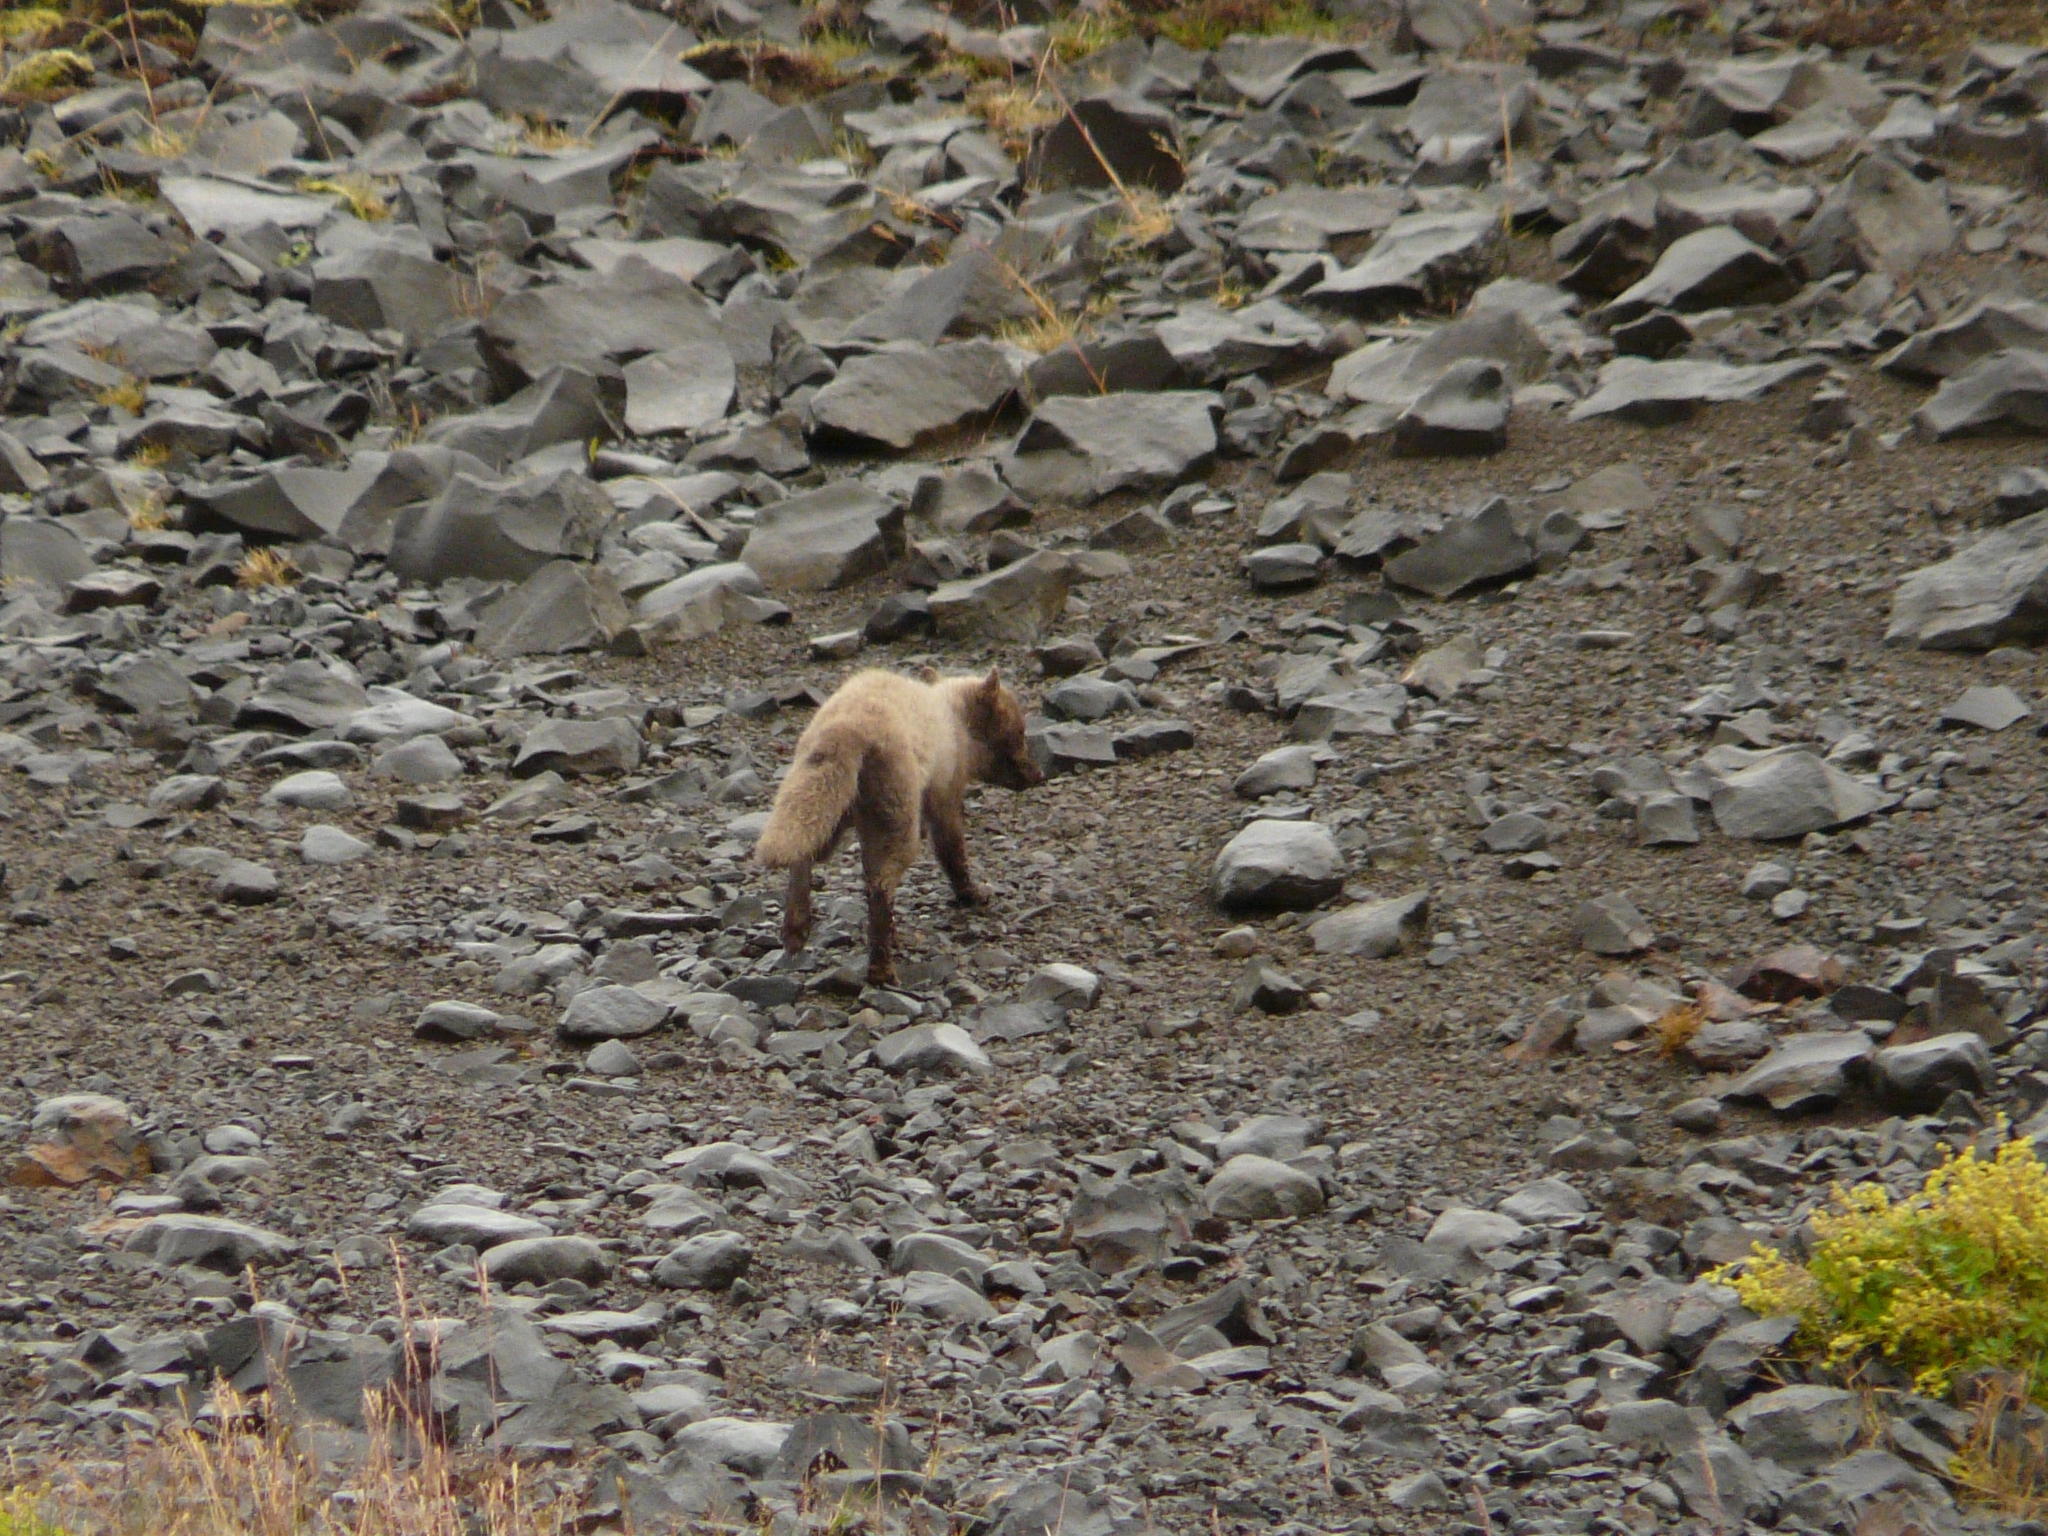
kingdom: Animalia
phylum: Chordata
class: Mammalia
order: Carnivora
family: Canidae
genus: Vulpes
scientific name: Vulpes lagopus
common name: Arctic fox
